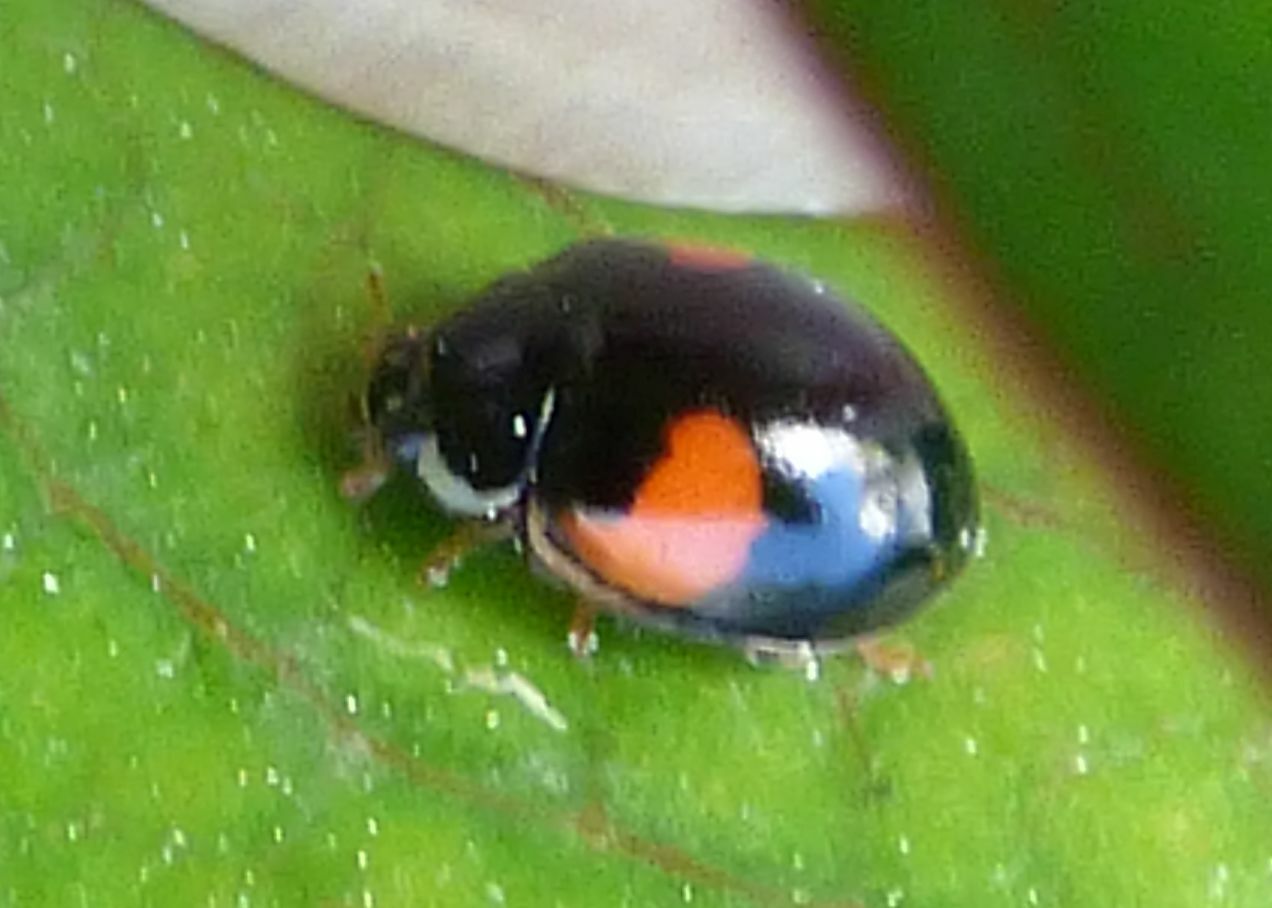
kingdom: Animalia
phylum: Arthropoda
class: Insecta
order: Coleoptera
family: Coccinellidae
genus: Adalia
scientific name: Adalia decempunctata
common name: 10-spot ladybird
